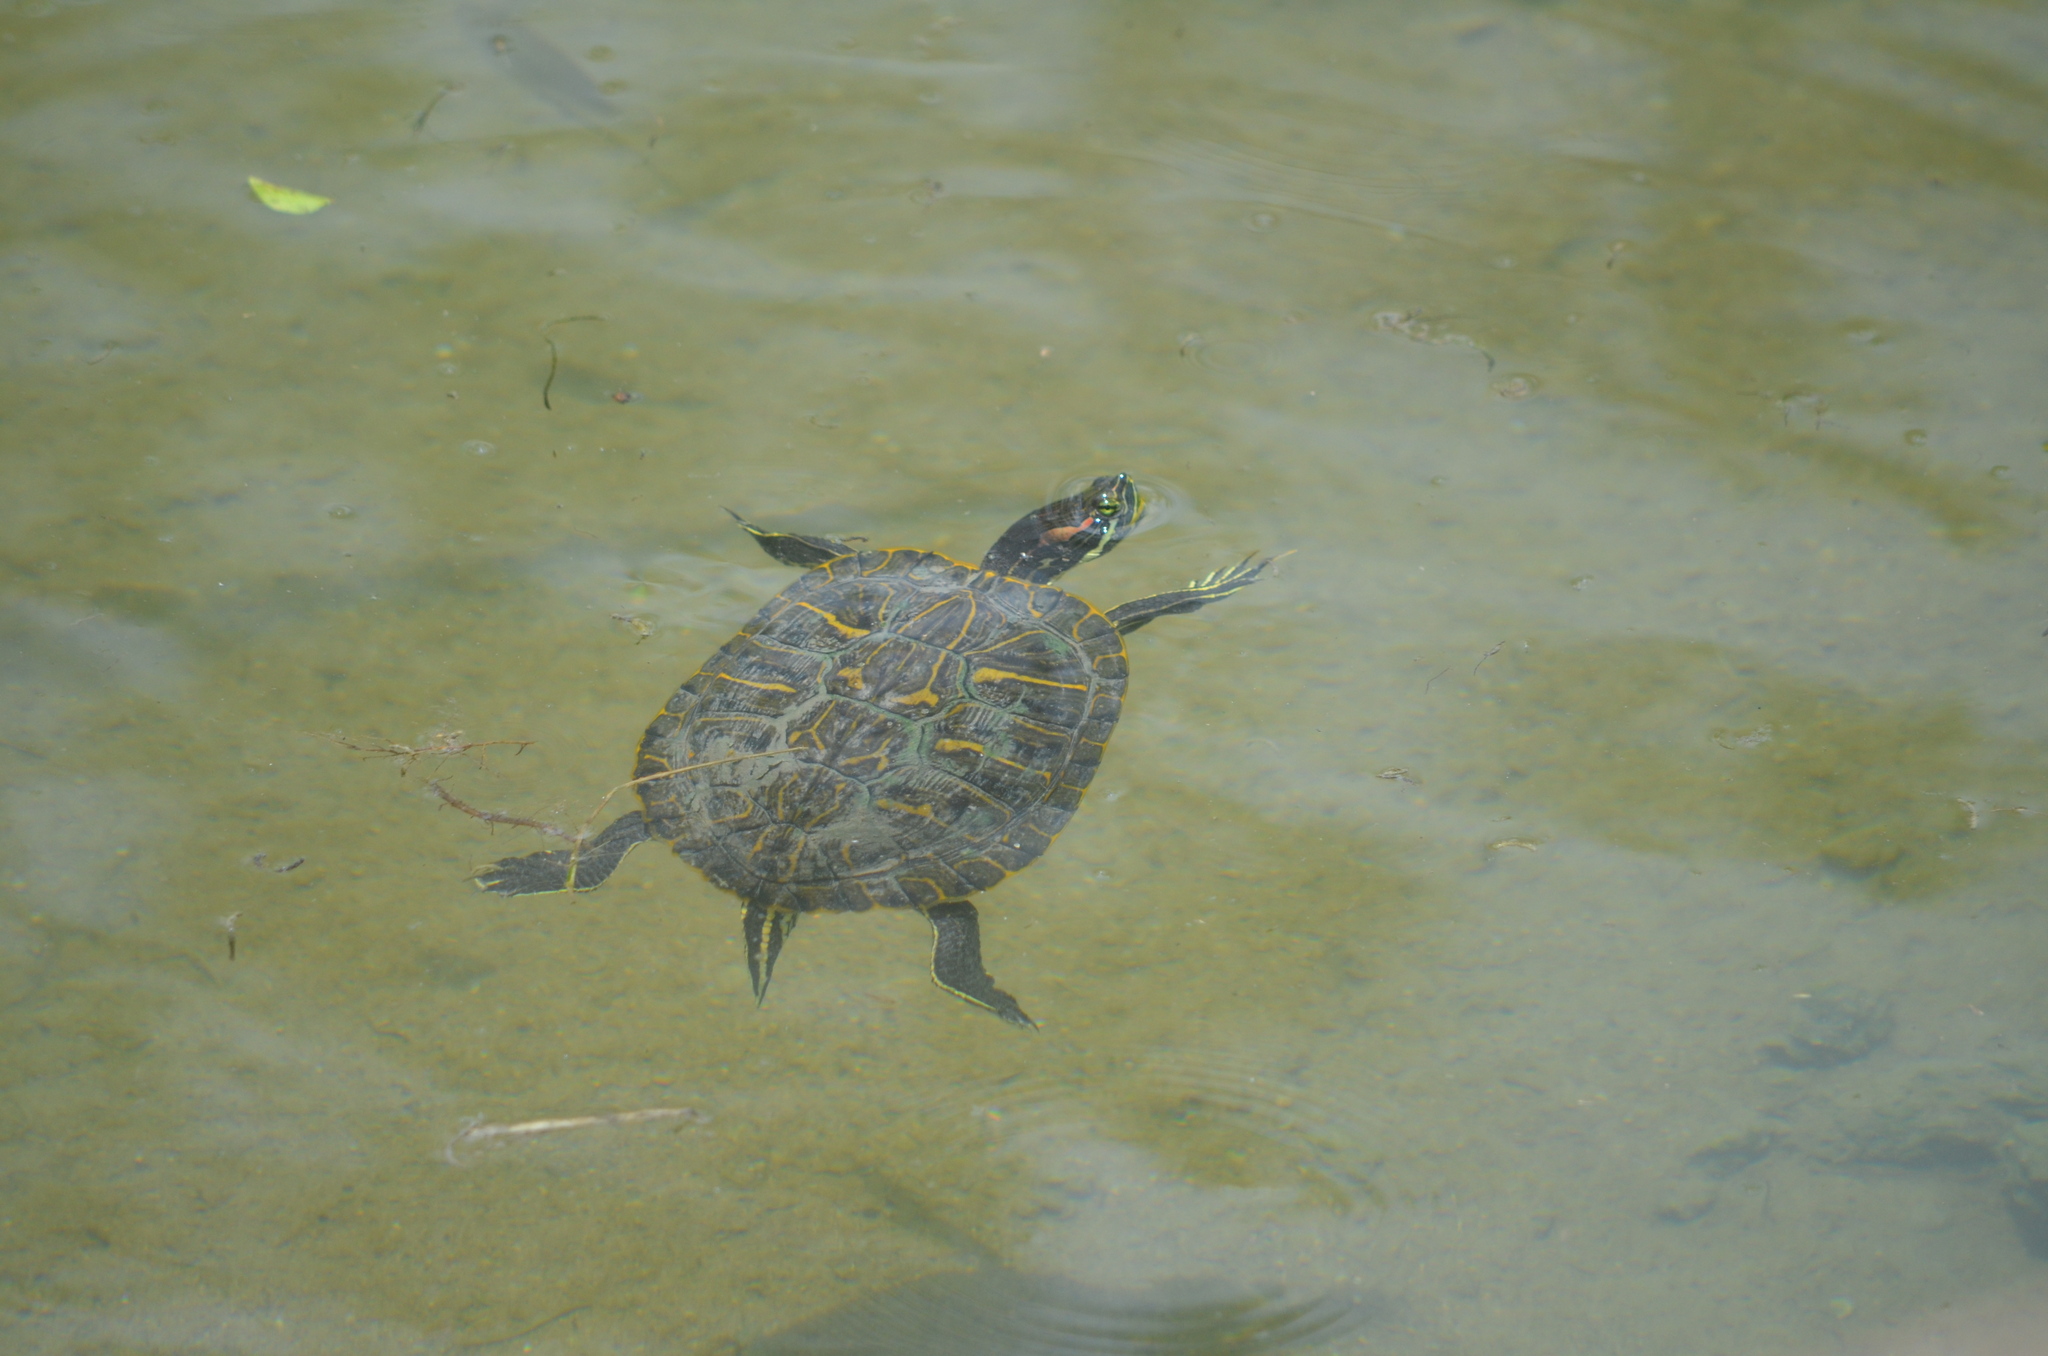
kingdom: Animalia
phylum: Chordata
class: Testudines
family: Emydidae
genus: Trachemys
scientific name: Trachemys scripta
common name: Slider
